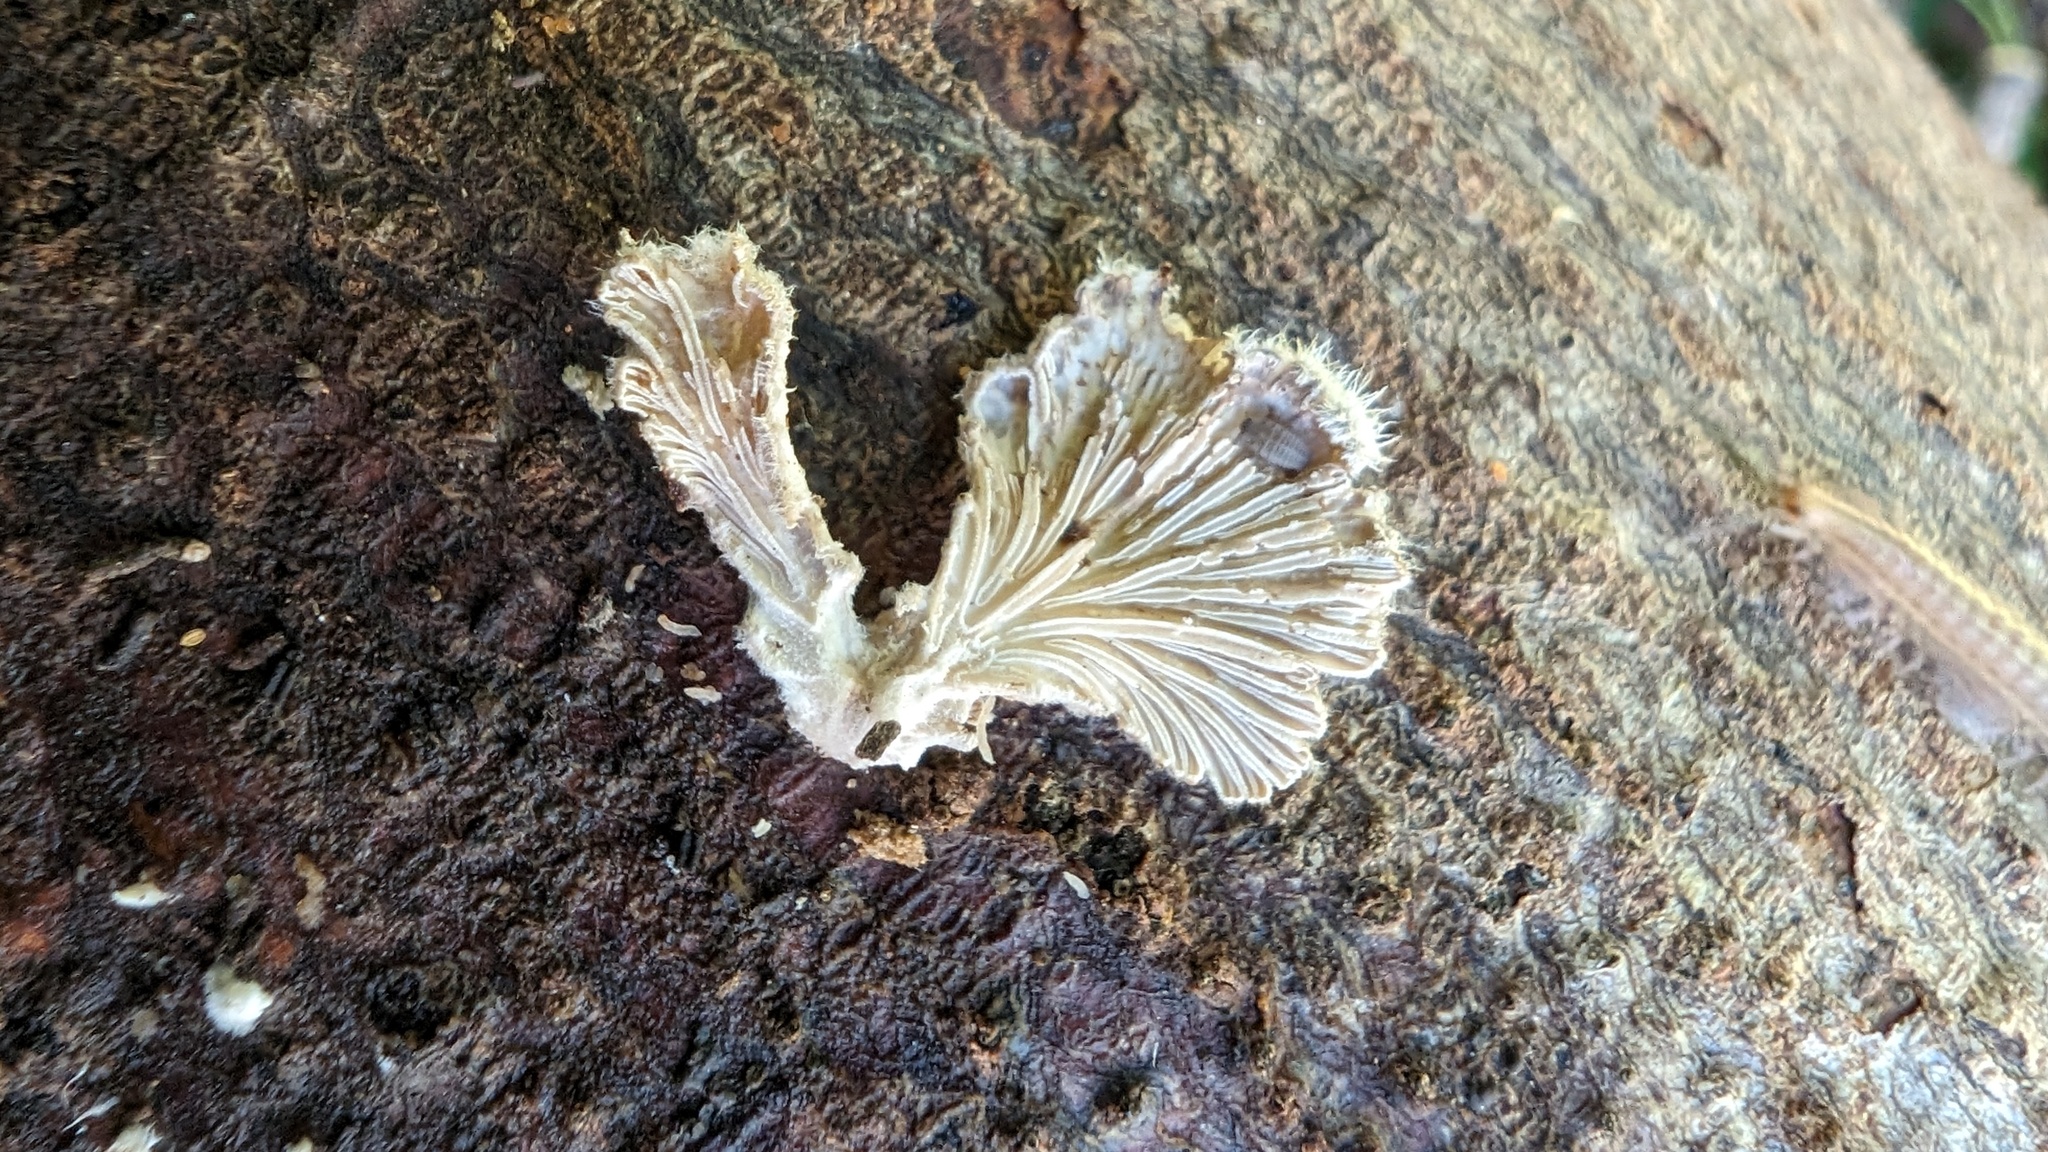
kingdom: Fungi
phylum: Basidiomycota
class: Agaricomycetes
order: Agaricales
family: Schizophyllaceae
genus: Schizophyllum
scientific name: Schizophyllum commune
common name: Common porecrust
